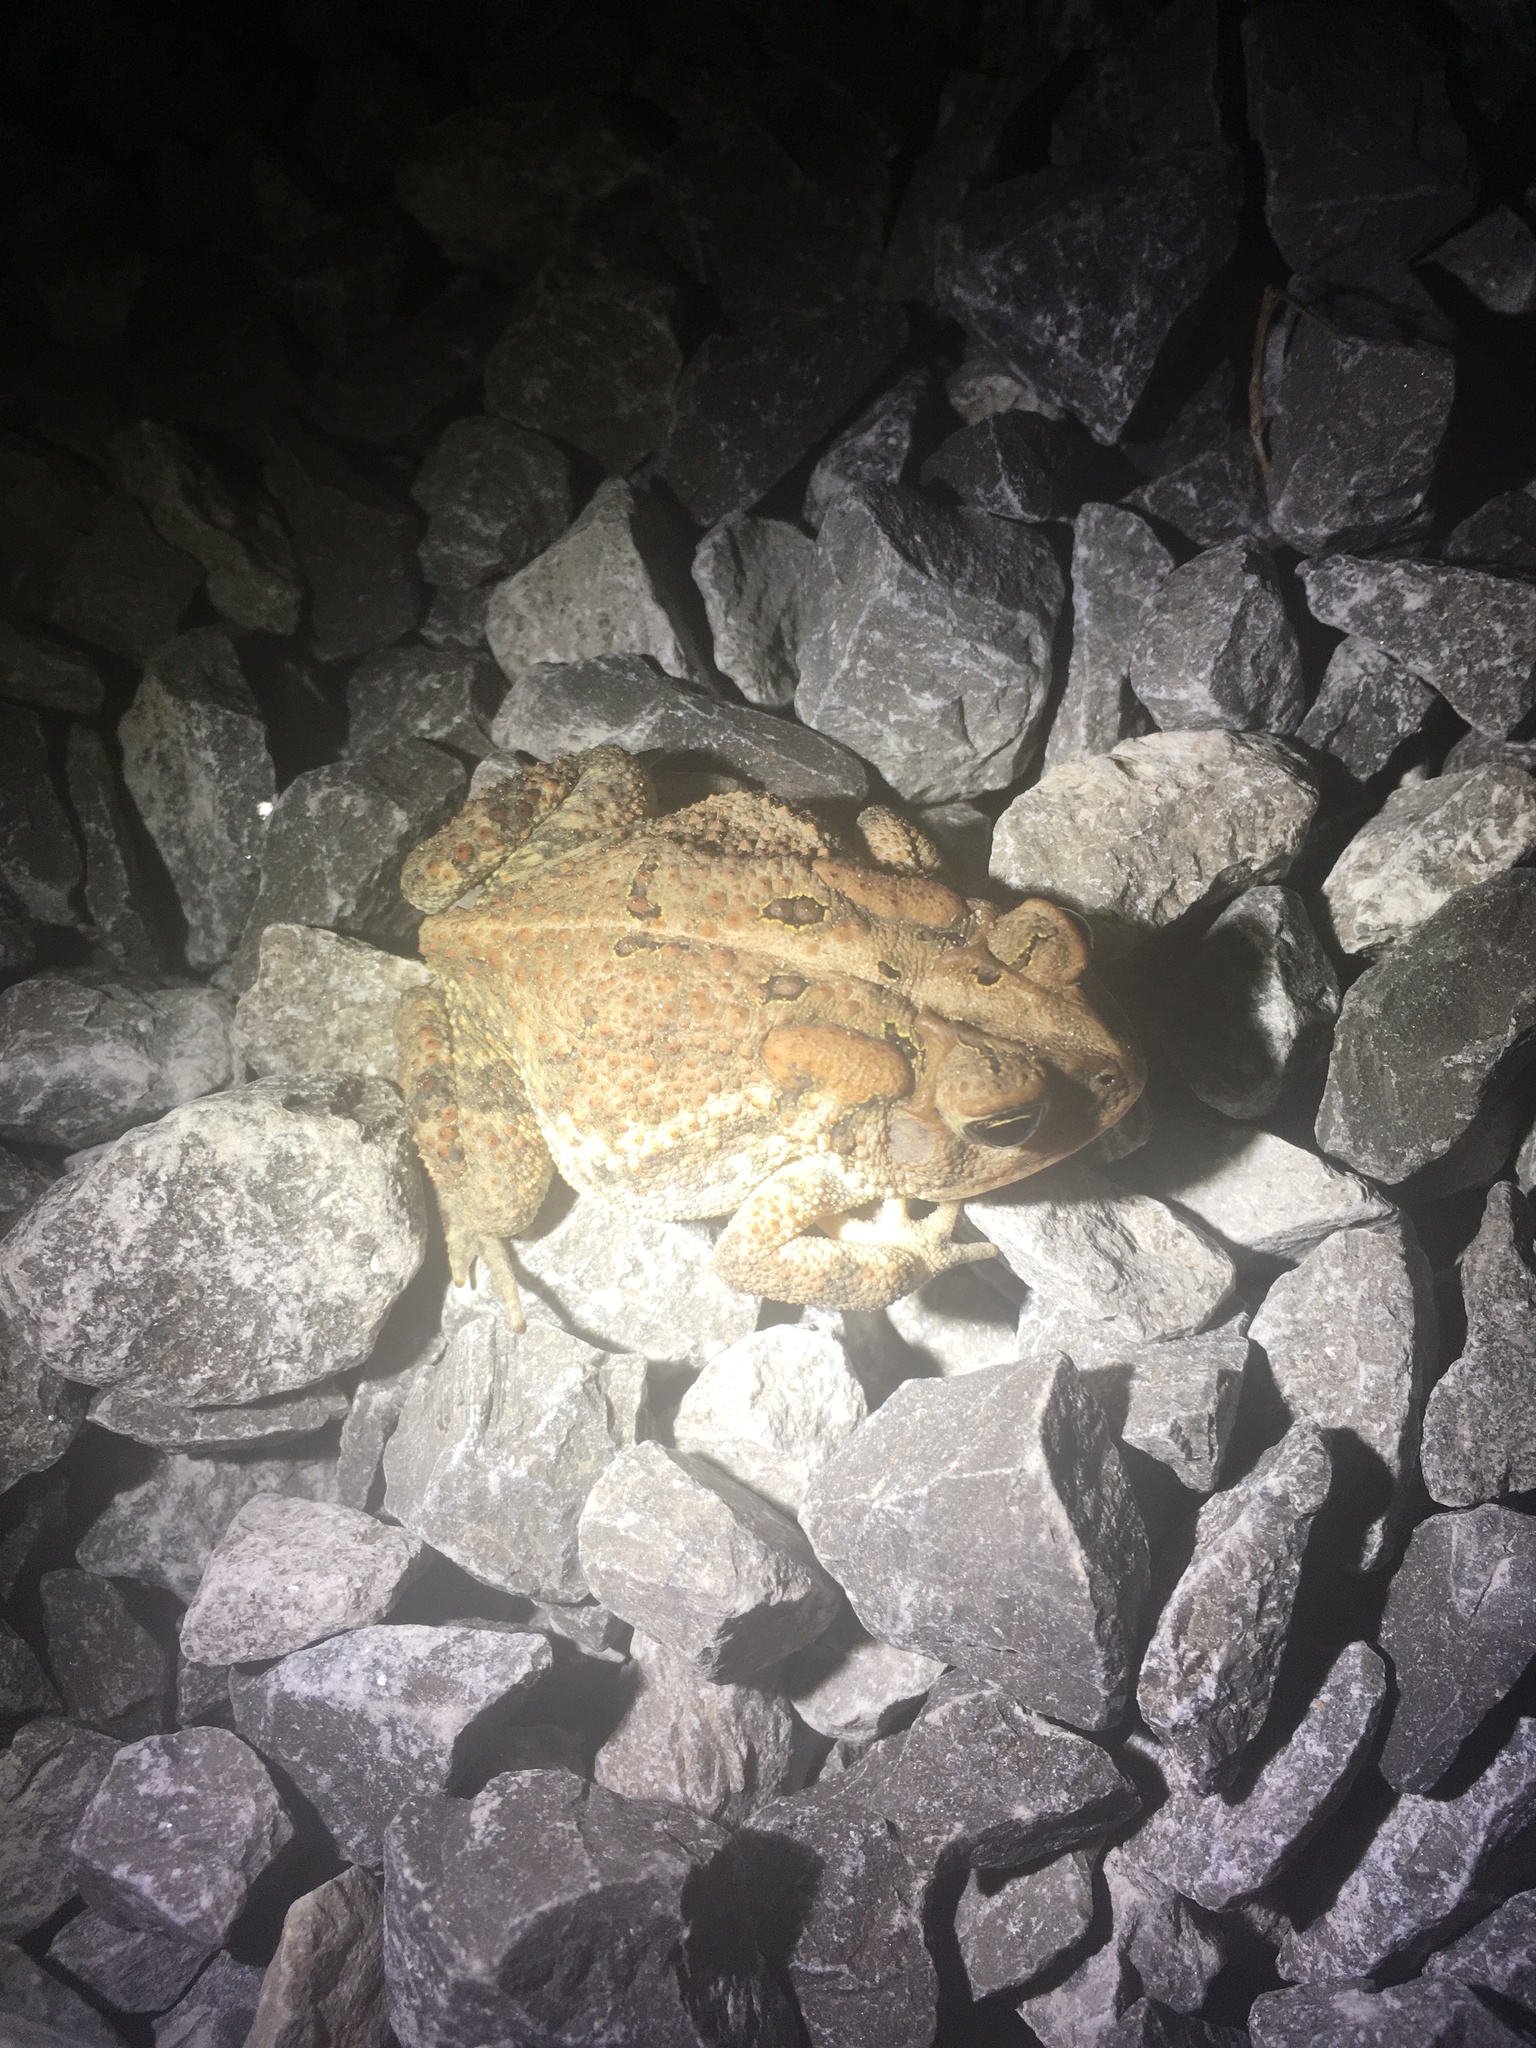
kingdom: Animalia
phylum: Chordata
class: Amphibia
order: Anura
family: Bufonidae
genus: Anaxyrus
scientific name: Anaxyrus terrestris
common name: Southern toad
